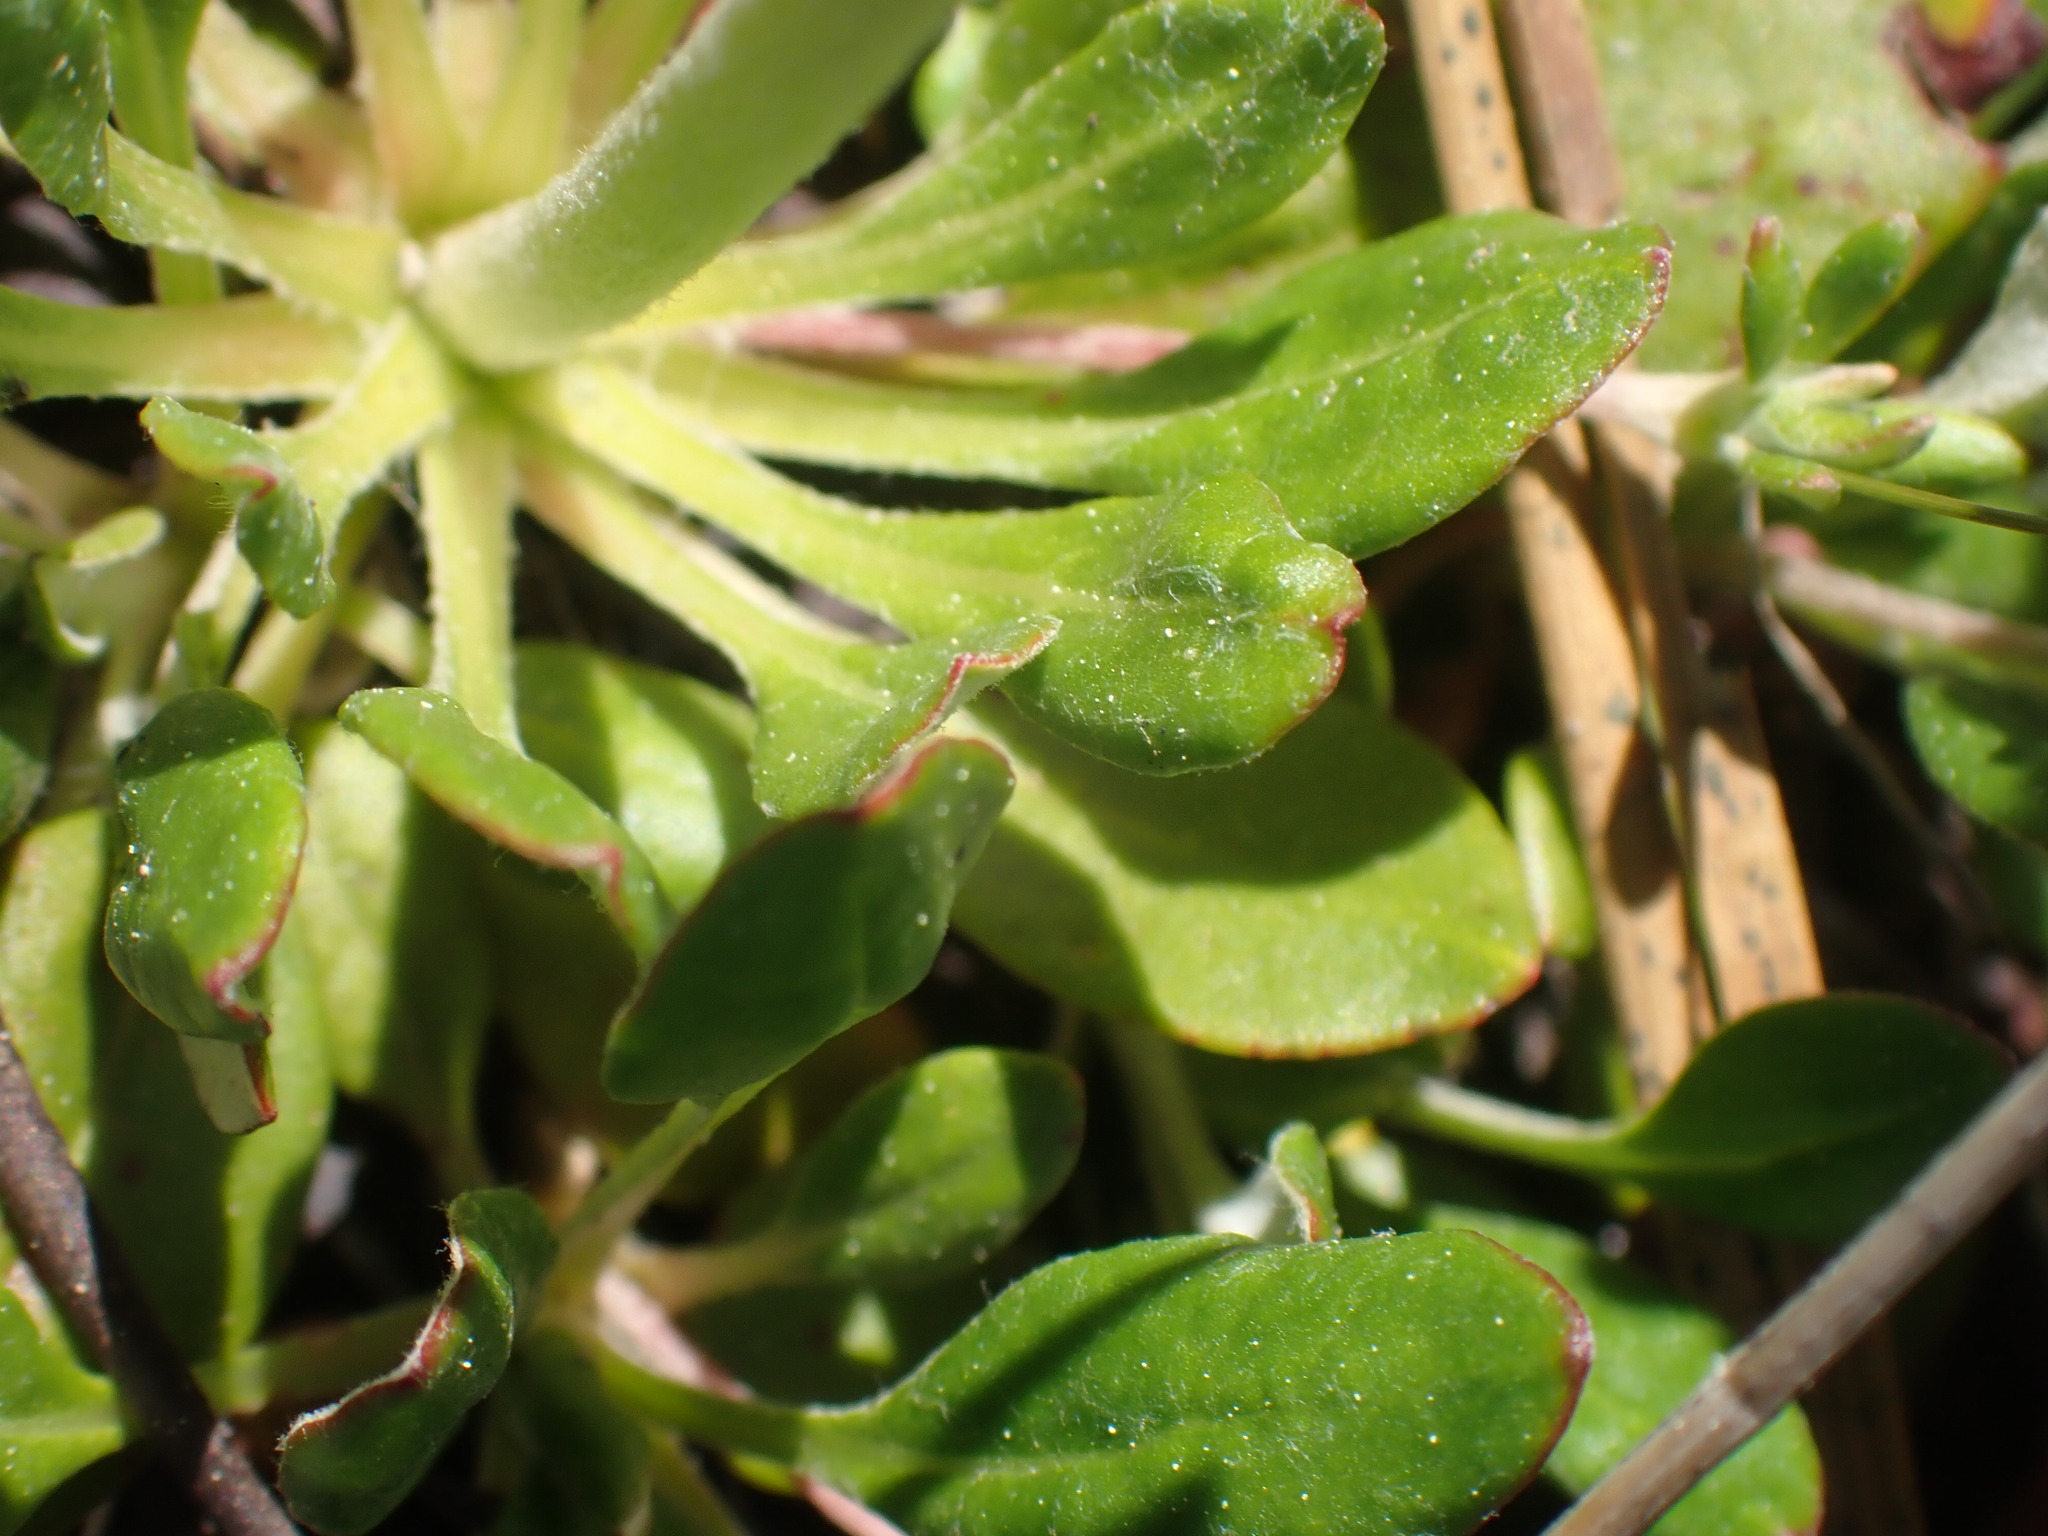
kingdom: Plantae
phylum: Tracheophyta
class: Magnoliopsida
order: Caryophyllales
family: Polygonaceae
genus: Eriogonum
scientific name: Eriogonum umbellatum
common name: Sulfur-buckwheat
